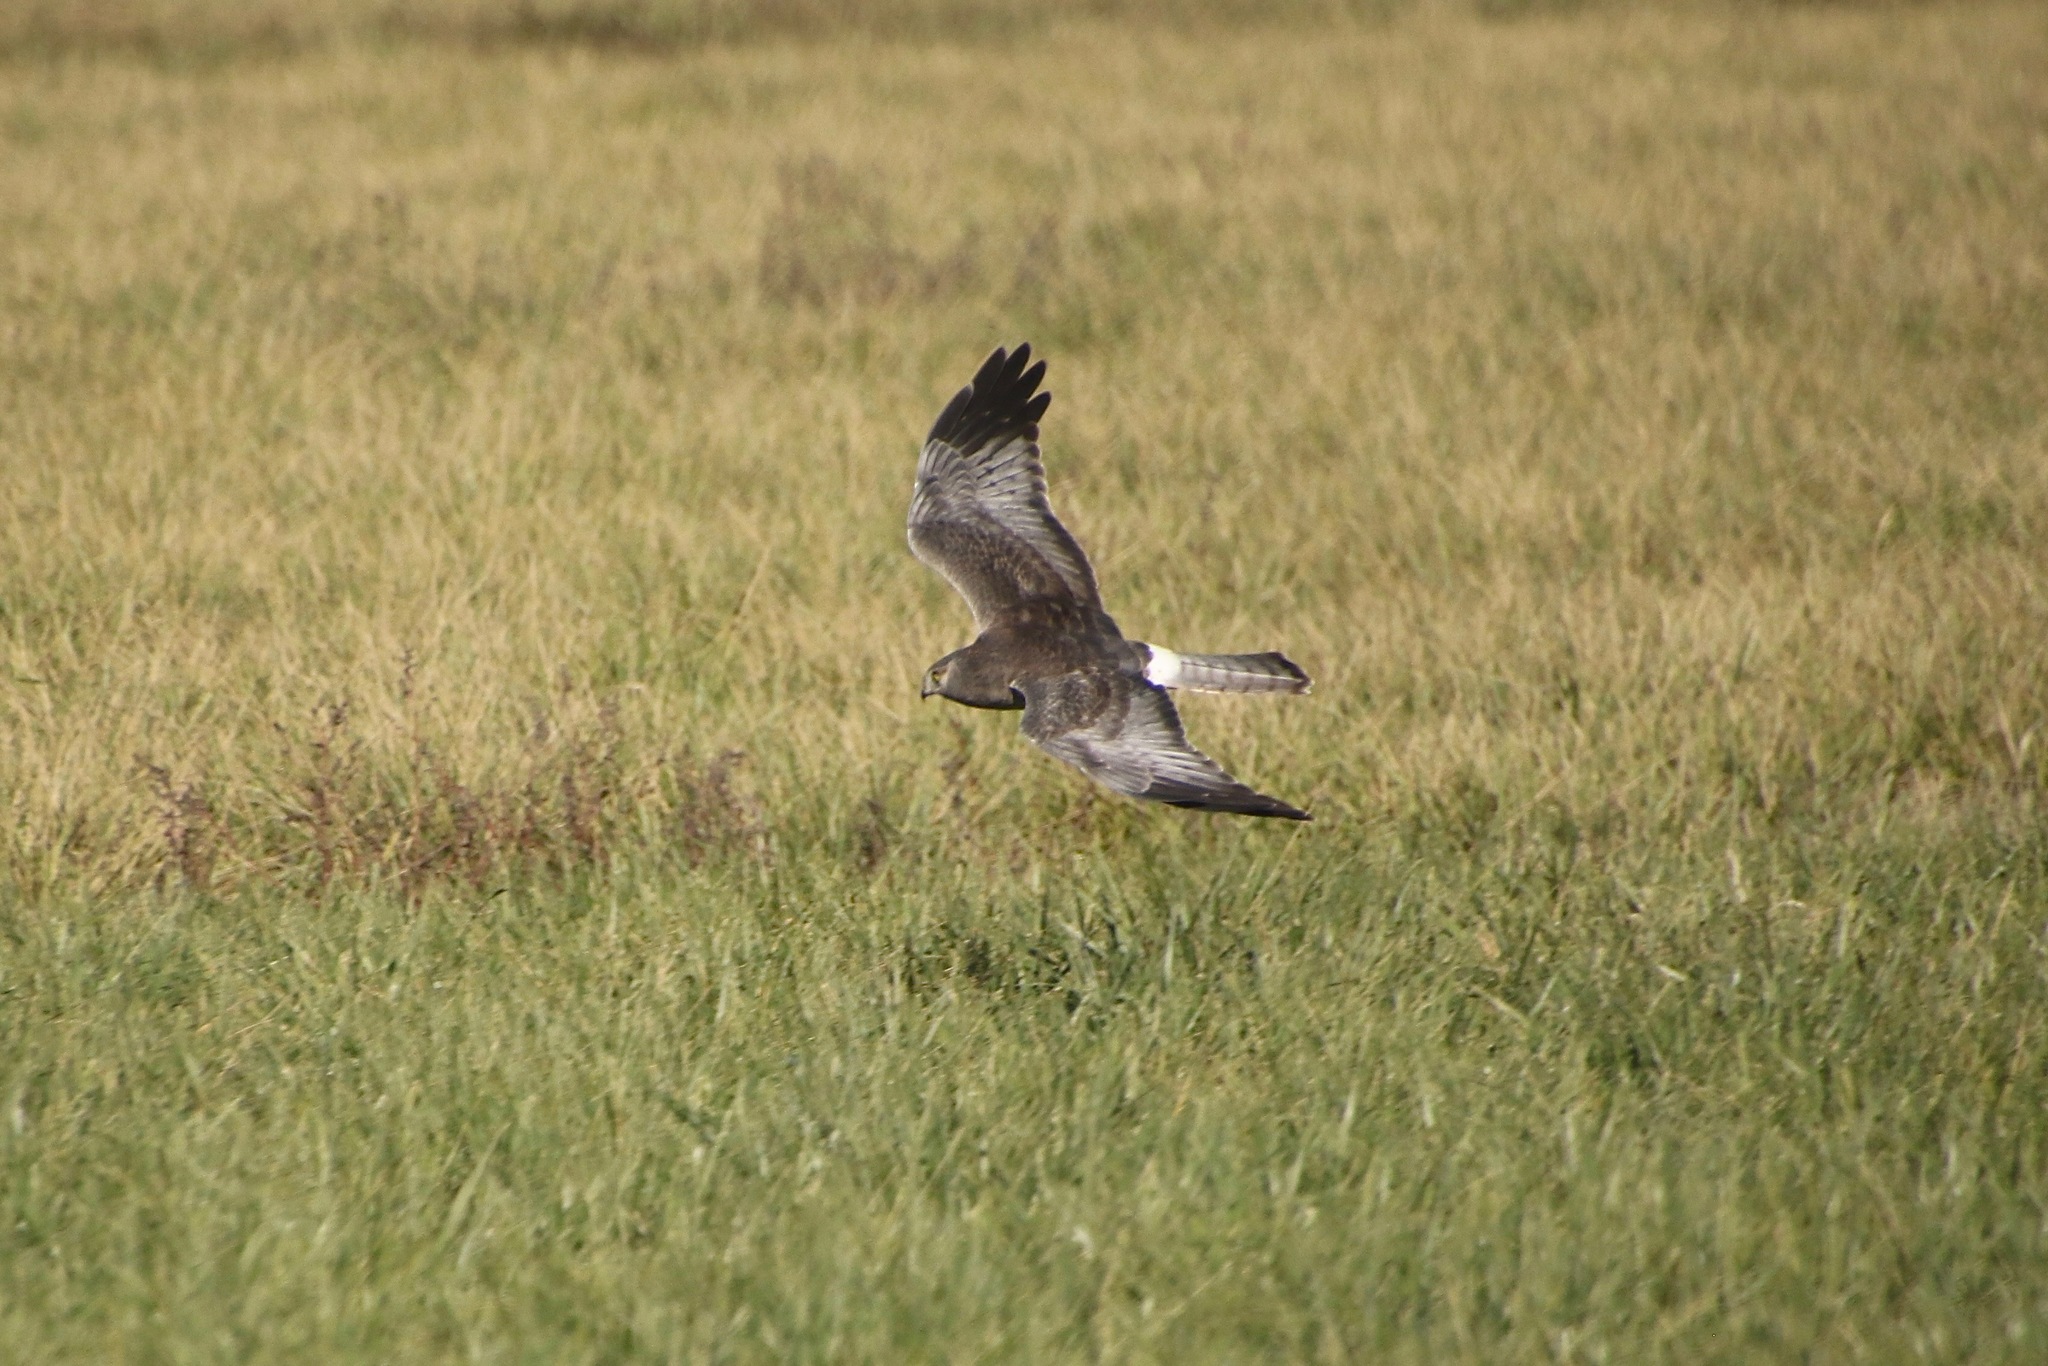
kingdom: Animalia
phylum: Chordata
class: Aves
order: Accipitriformes
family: Accipitridae
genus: Circus
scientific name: Circus cyaneus
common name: Hen harrier
